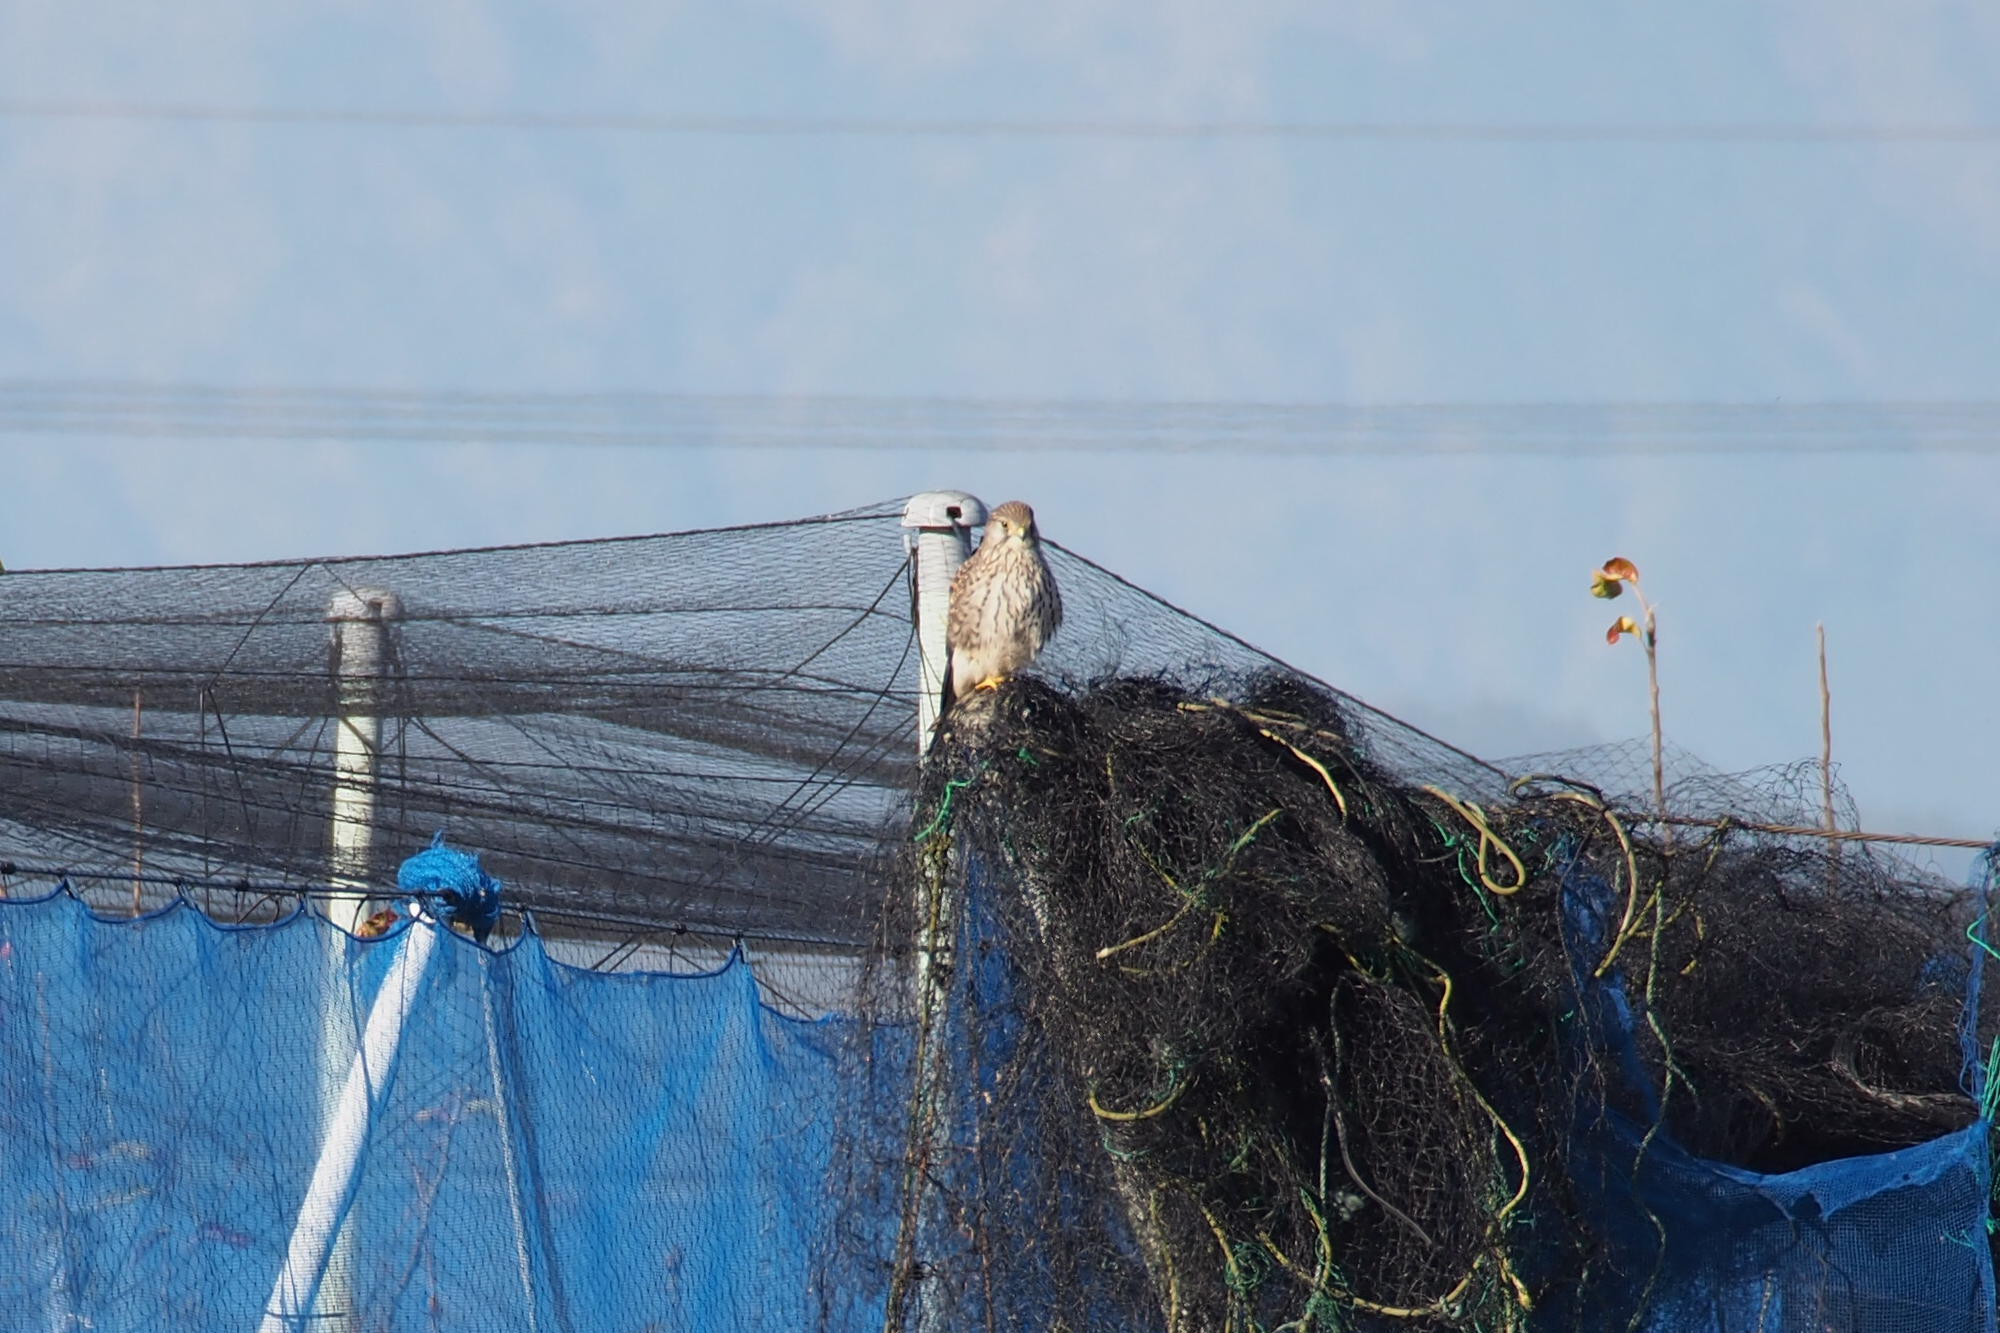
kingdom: Animalia
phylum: Chordata
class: Aves
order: Falconiformes
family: Falconidae
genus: Falco
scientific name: Falco tinnunculus
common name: Common kestrel
